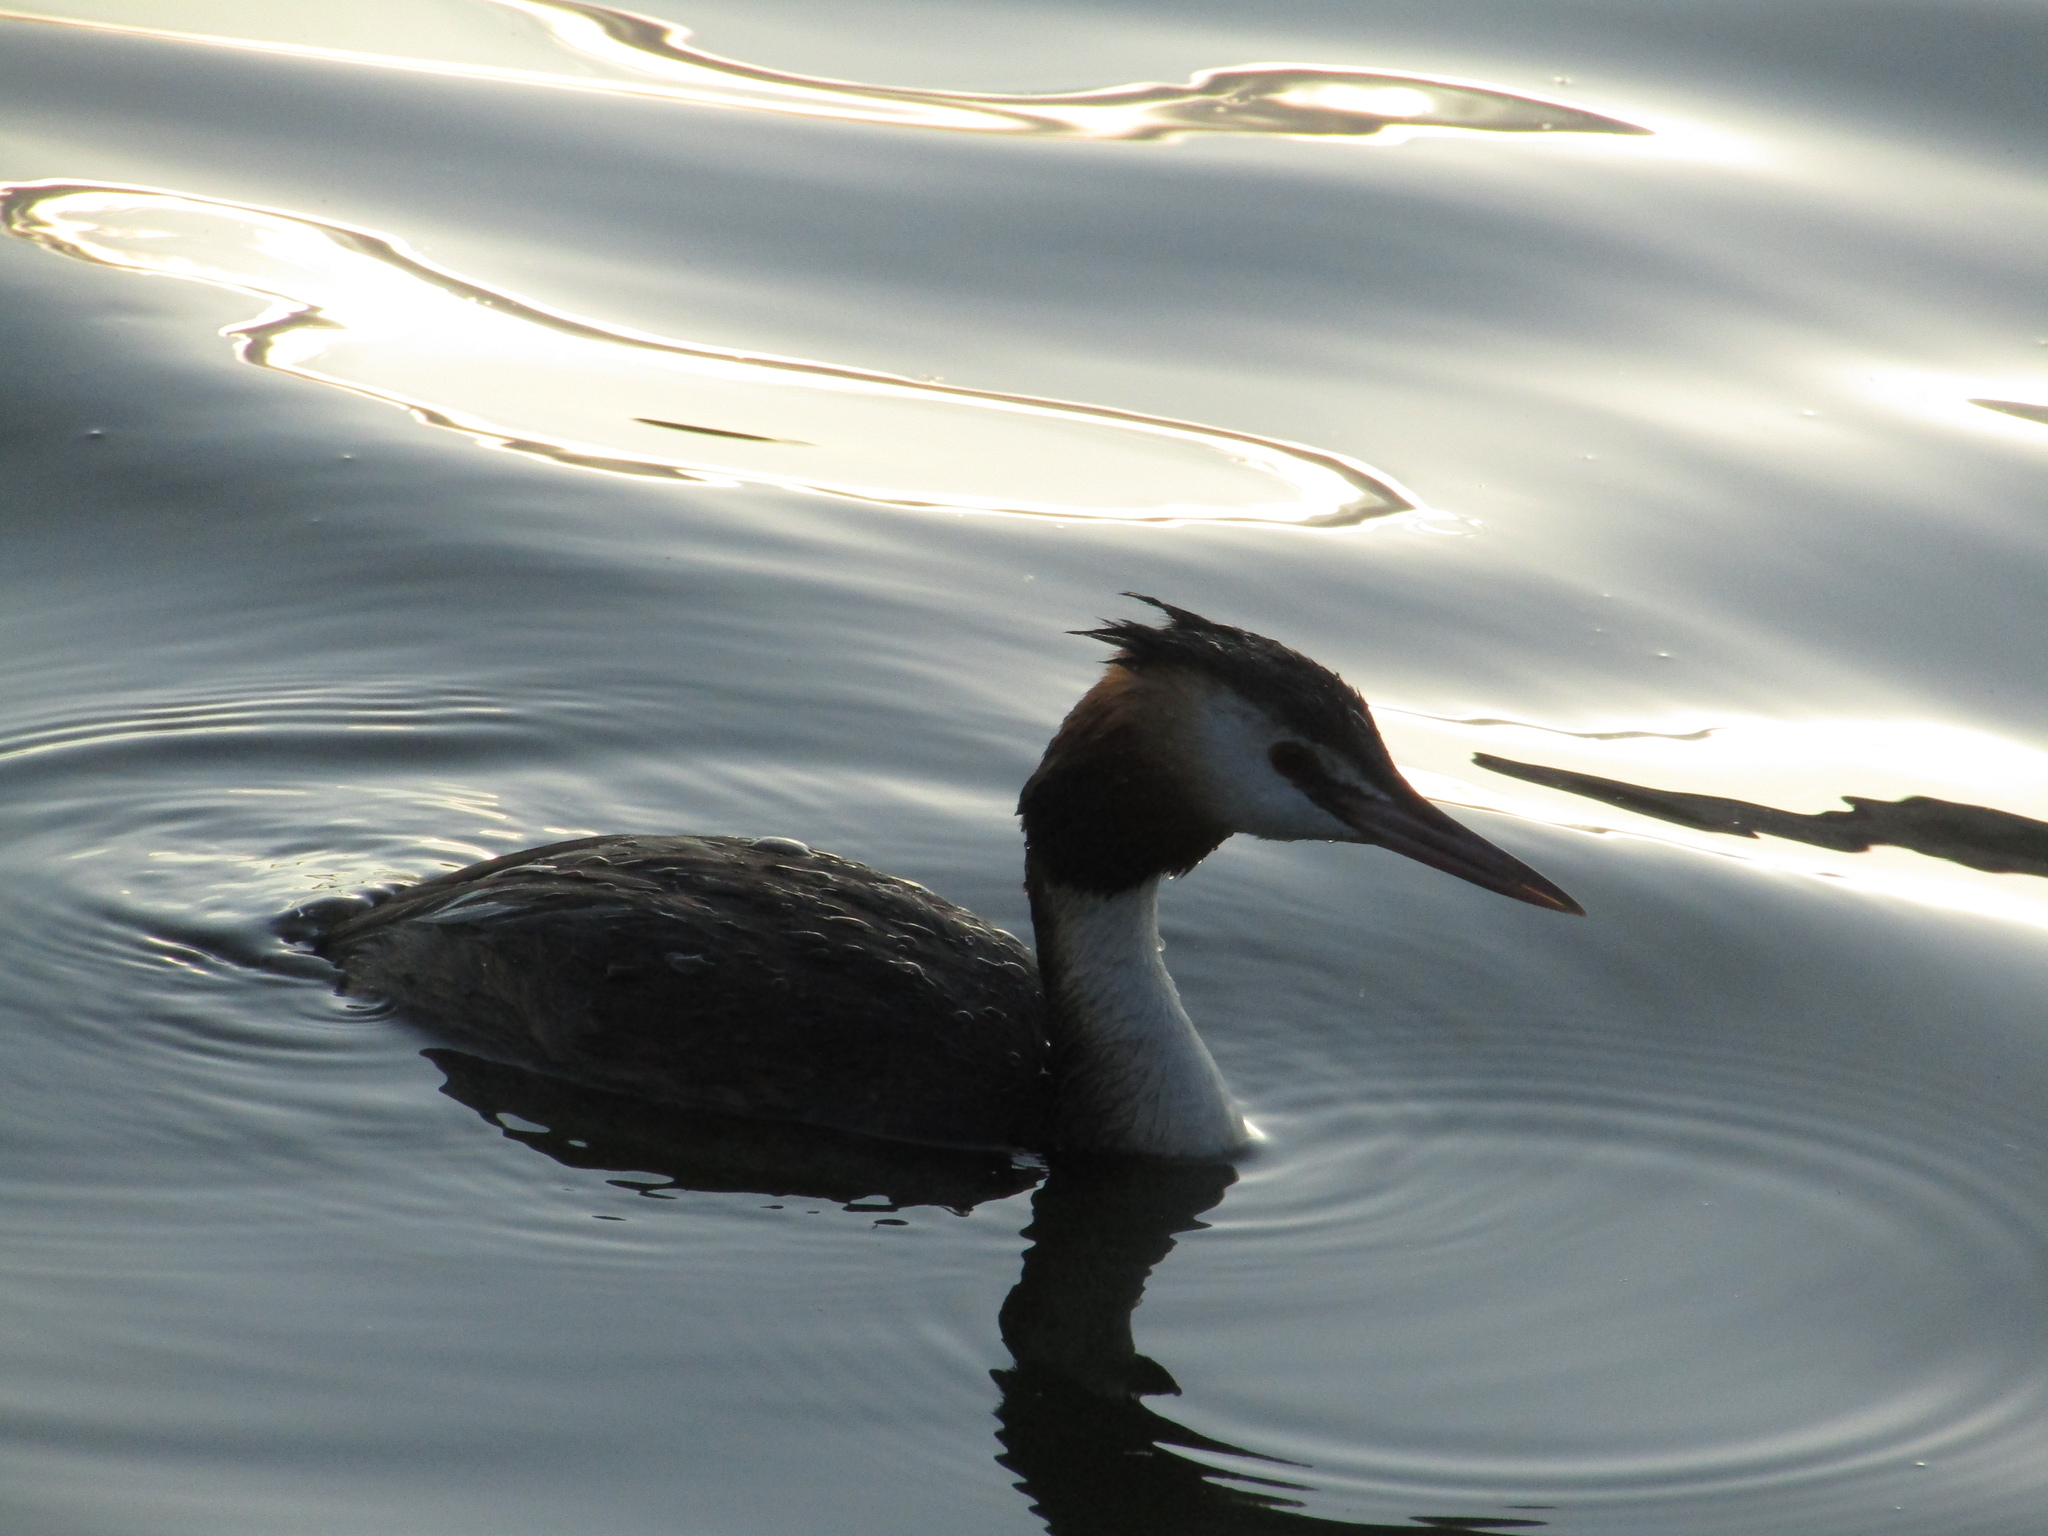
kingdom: Animalia
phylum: Chordata
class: Aves
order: Podicipediformes
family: Podicipedidae
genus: Podiceps
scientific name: Podiceps cristatus
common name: Great crested grebe
